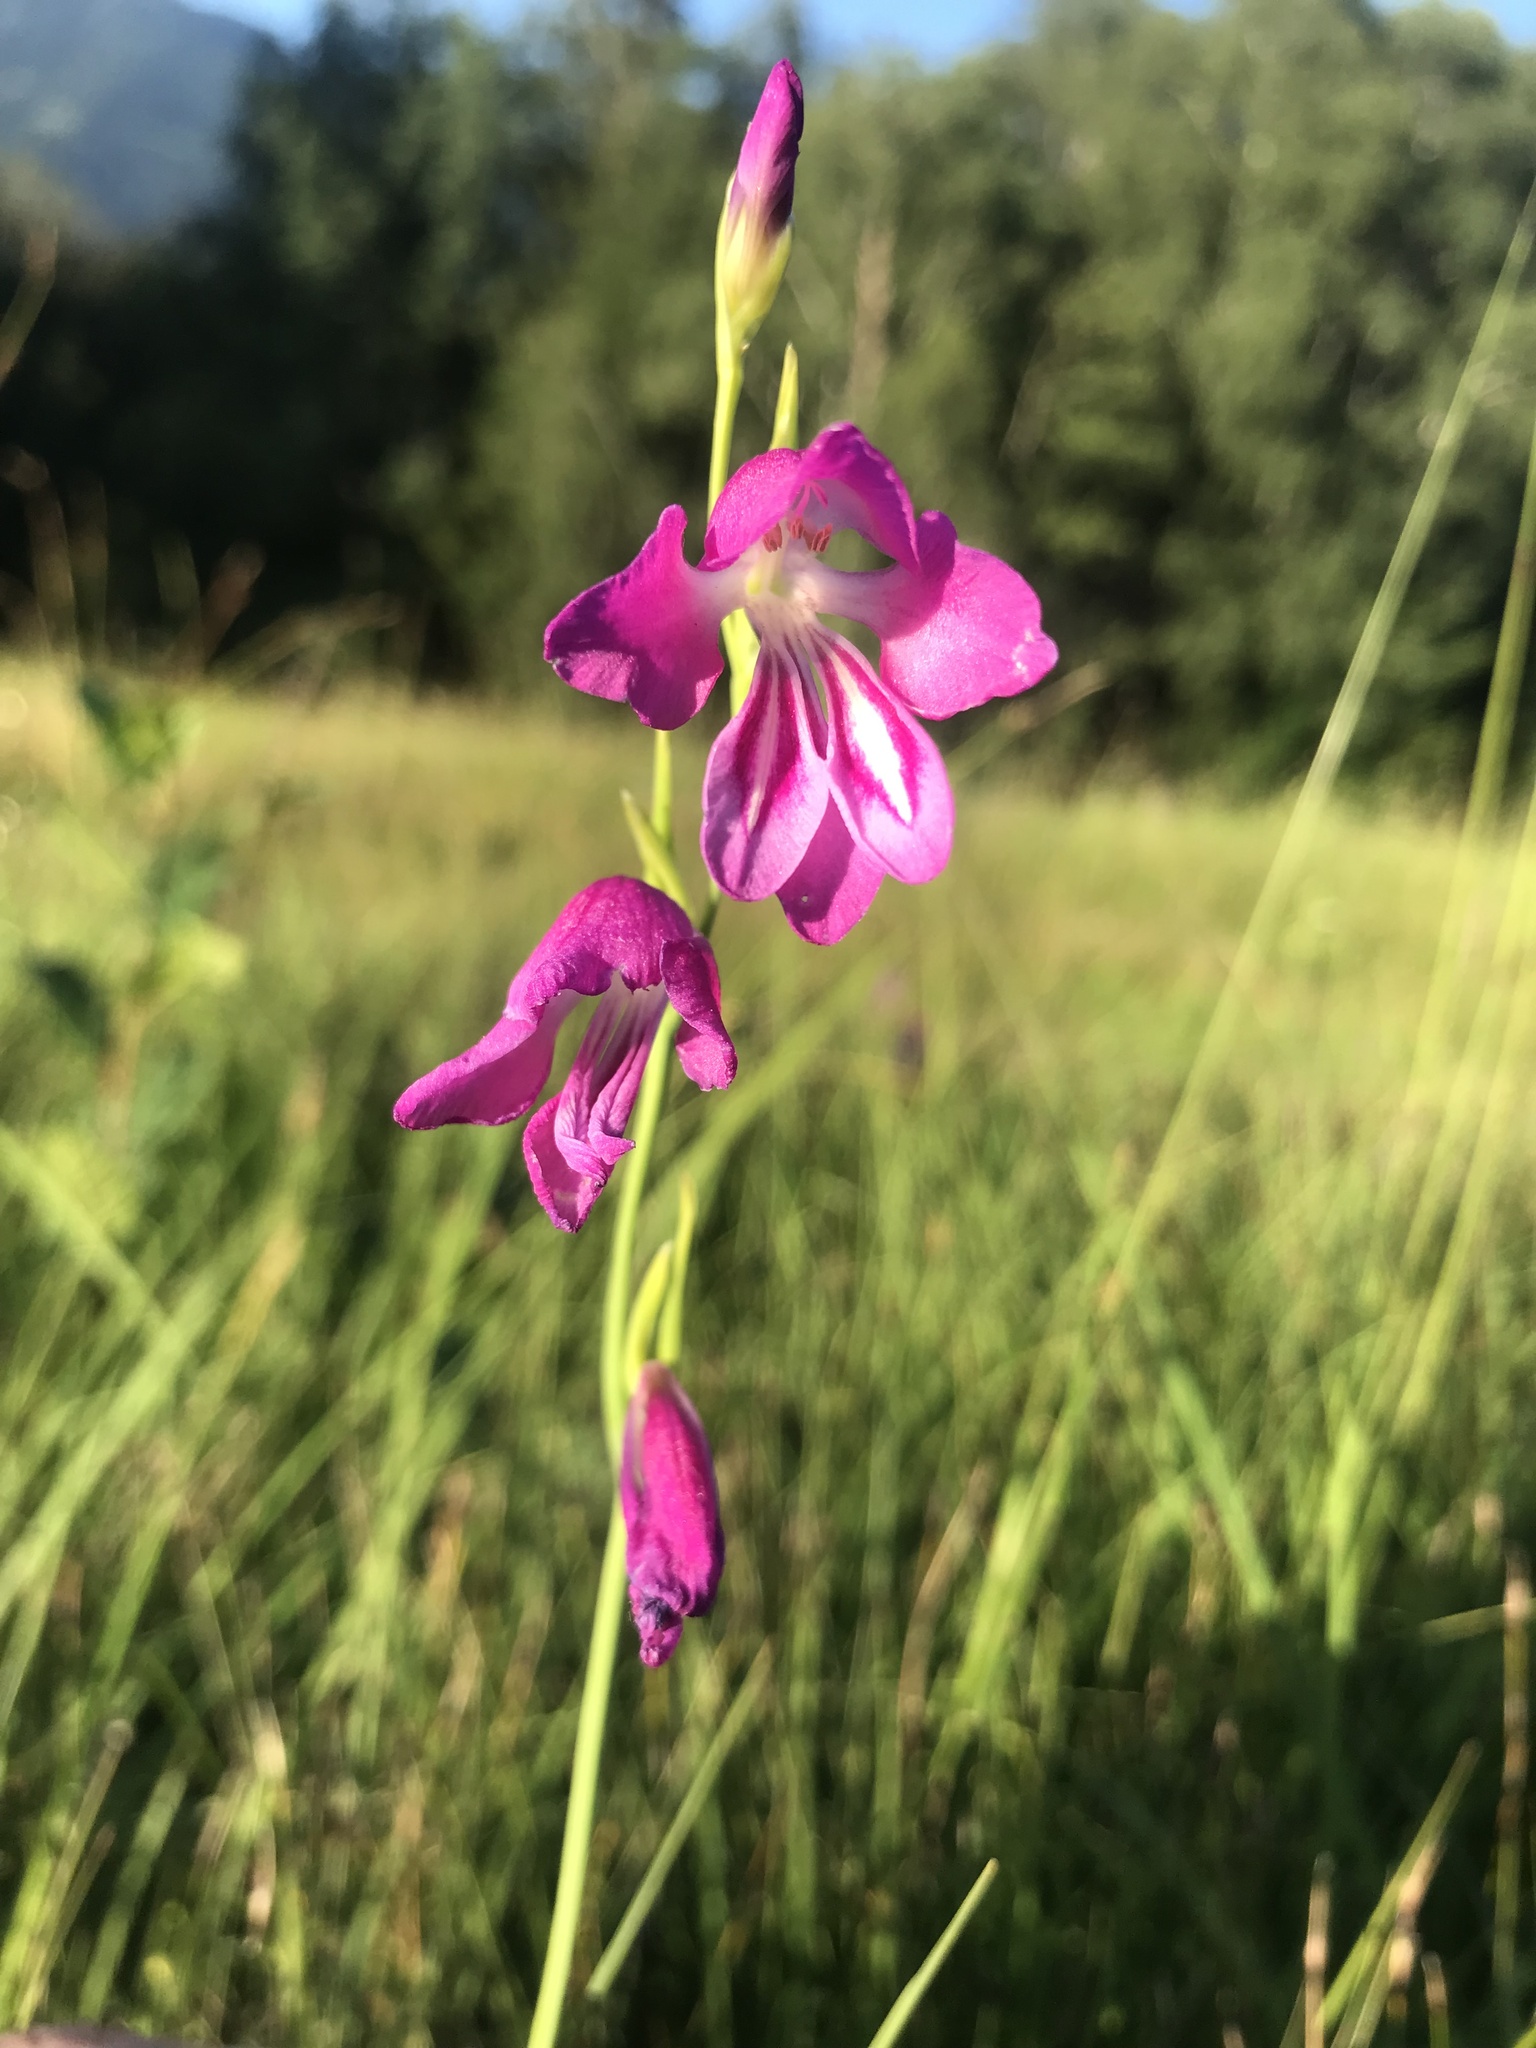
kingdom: Plantae
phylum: Tracheophyta
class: Liliopsida
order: Asparagales
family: Iridaceae
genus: Gladiolus
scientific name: Gladiolus palustris
